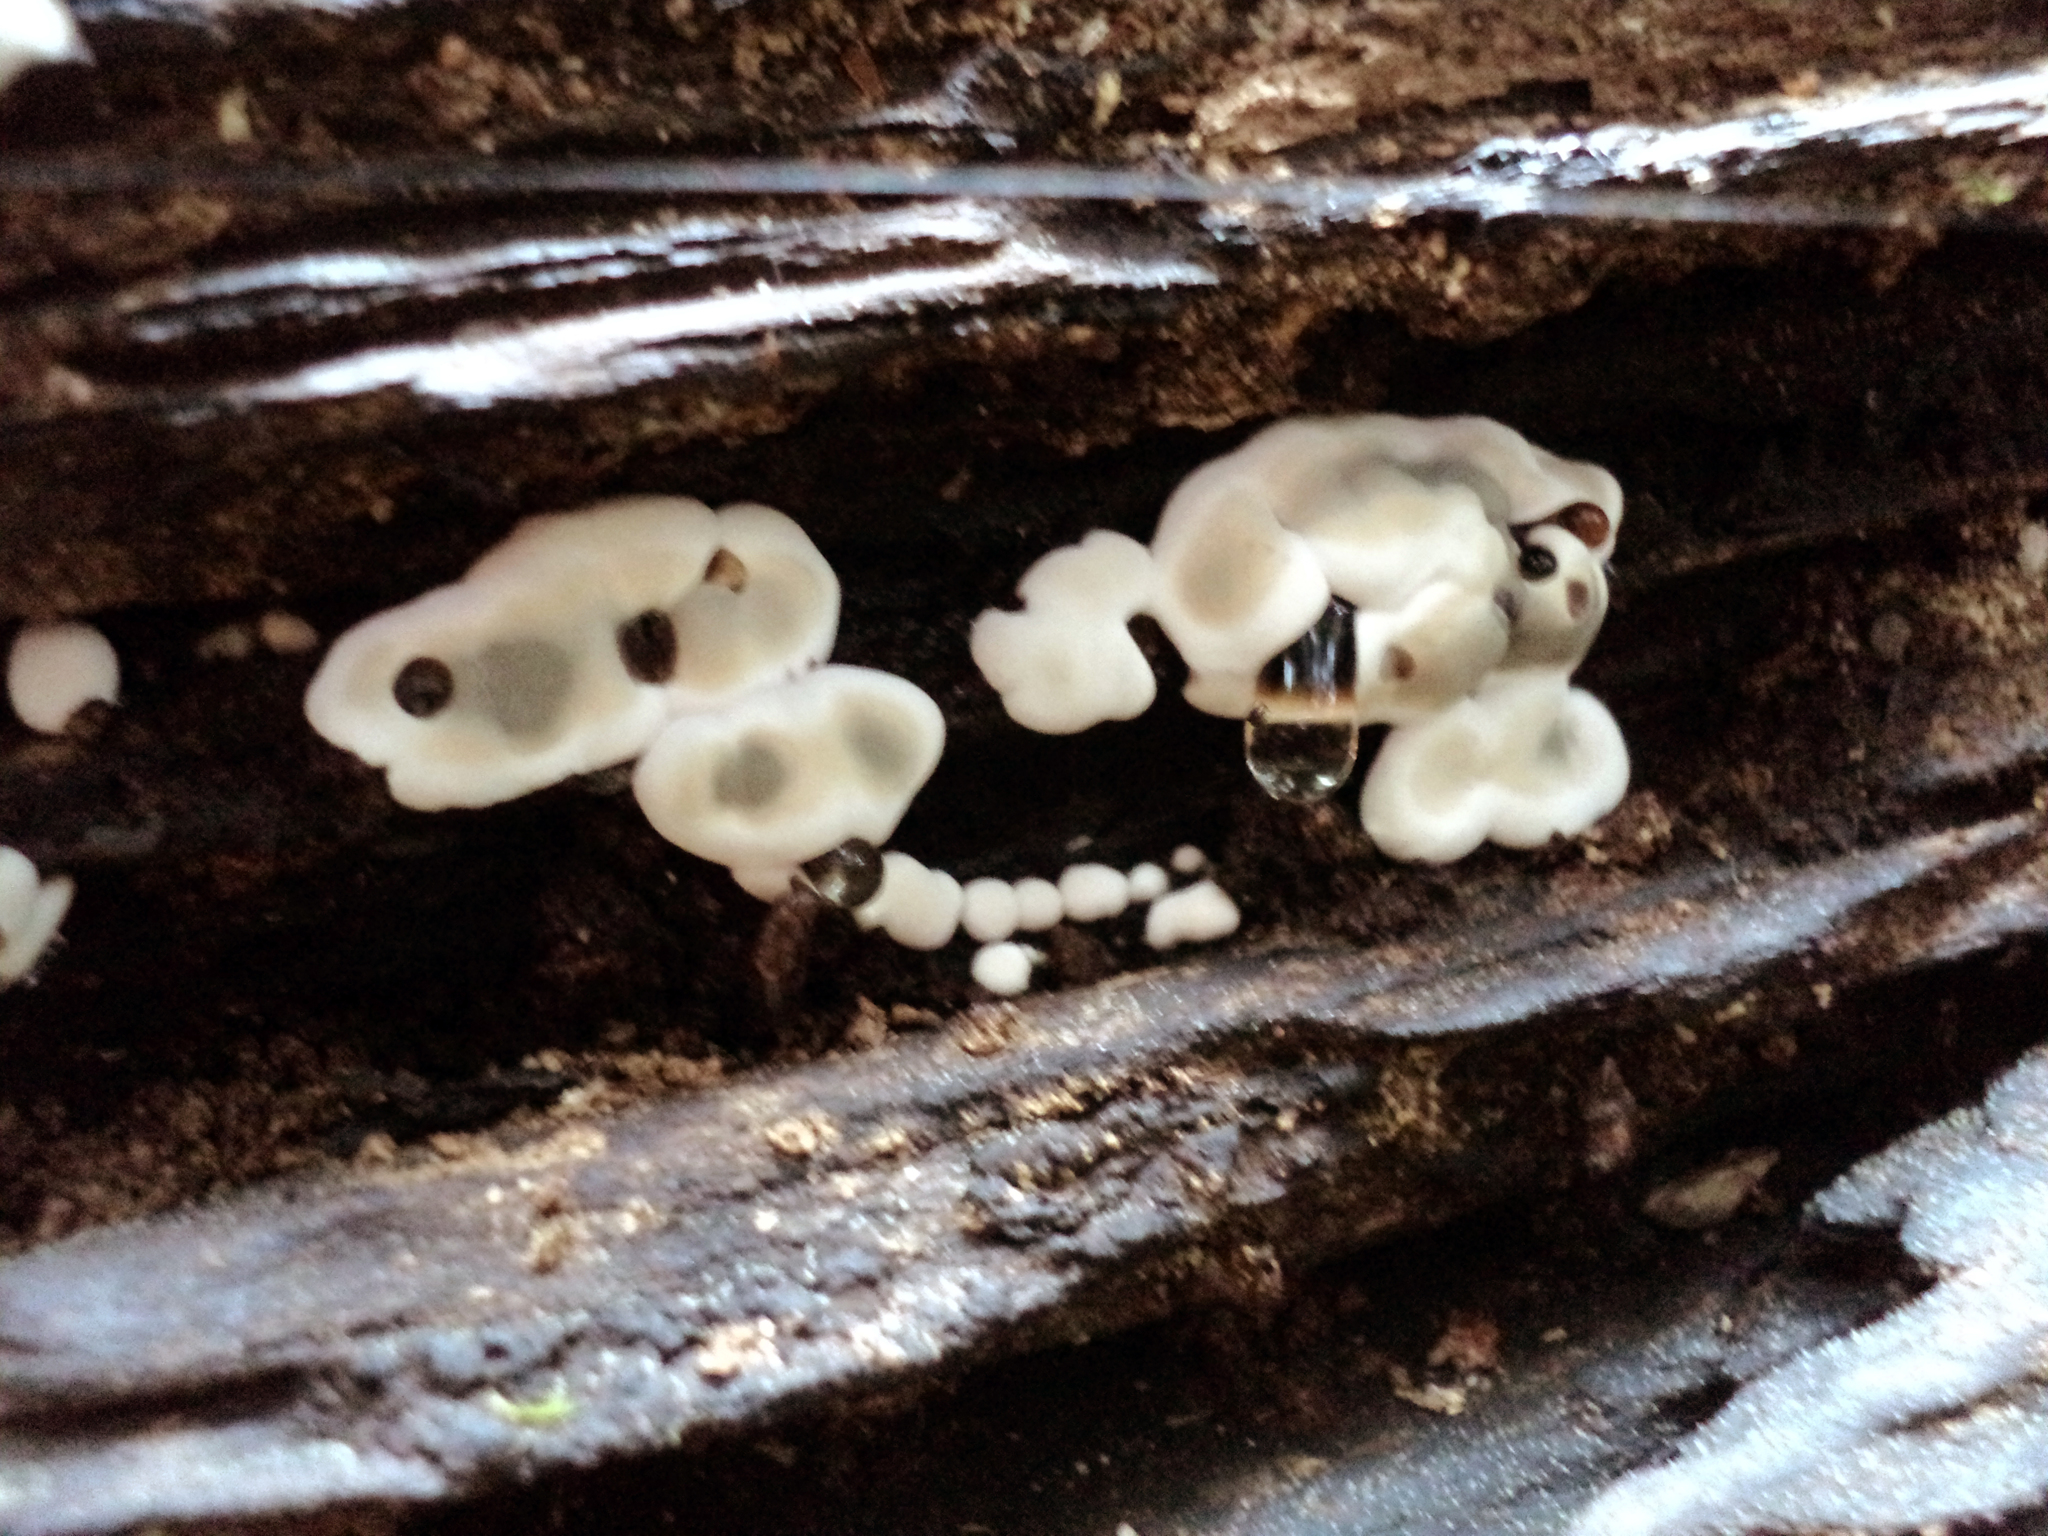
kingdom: Fungi
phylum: Ascomycota
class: Sordariomycetes
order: Xylariales
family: Xylariaceae
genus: Kretzschmaria
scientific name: Kretzschmaria deusta
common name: Brittle cinder
